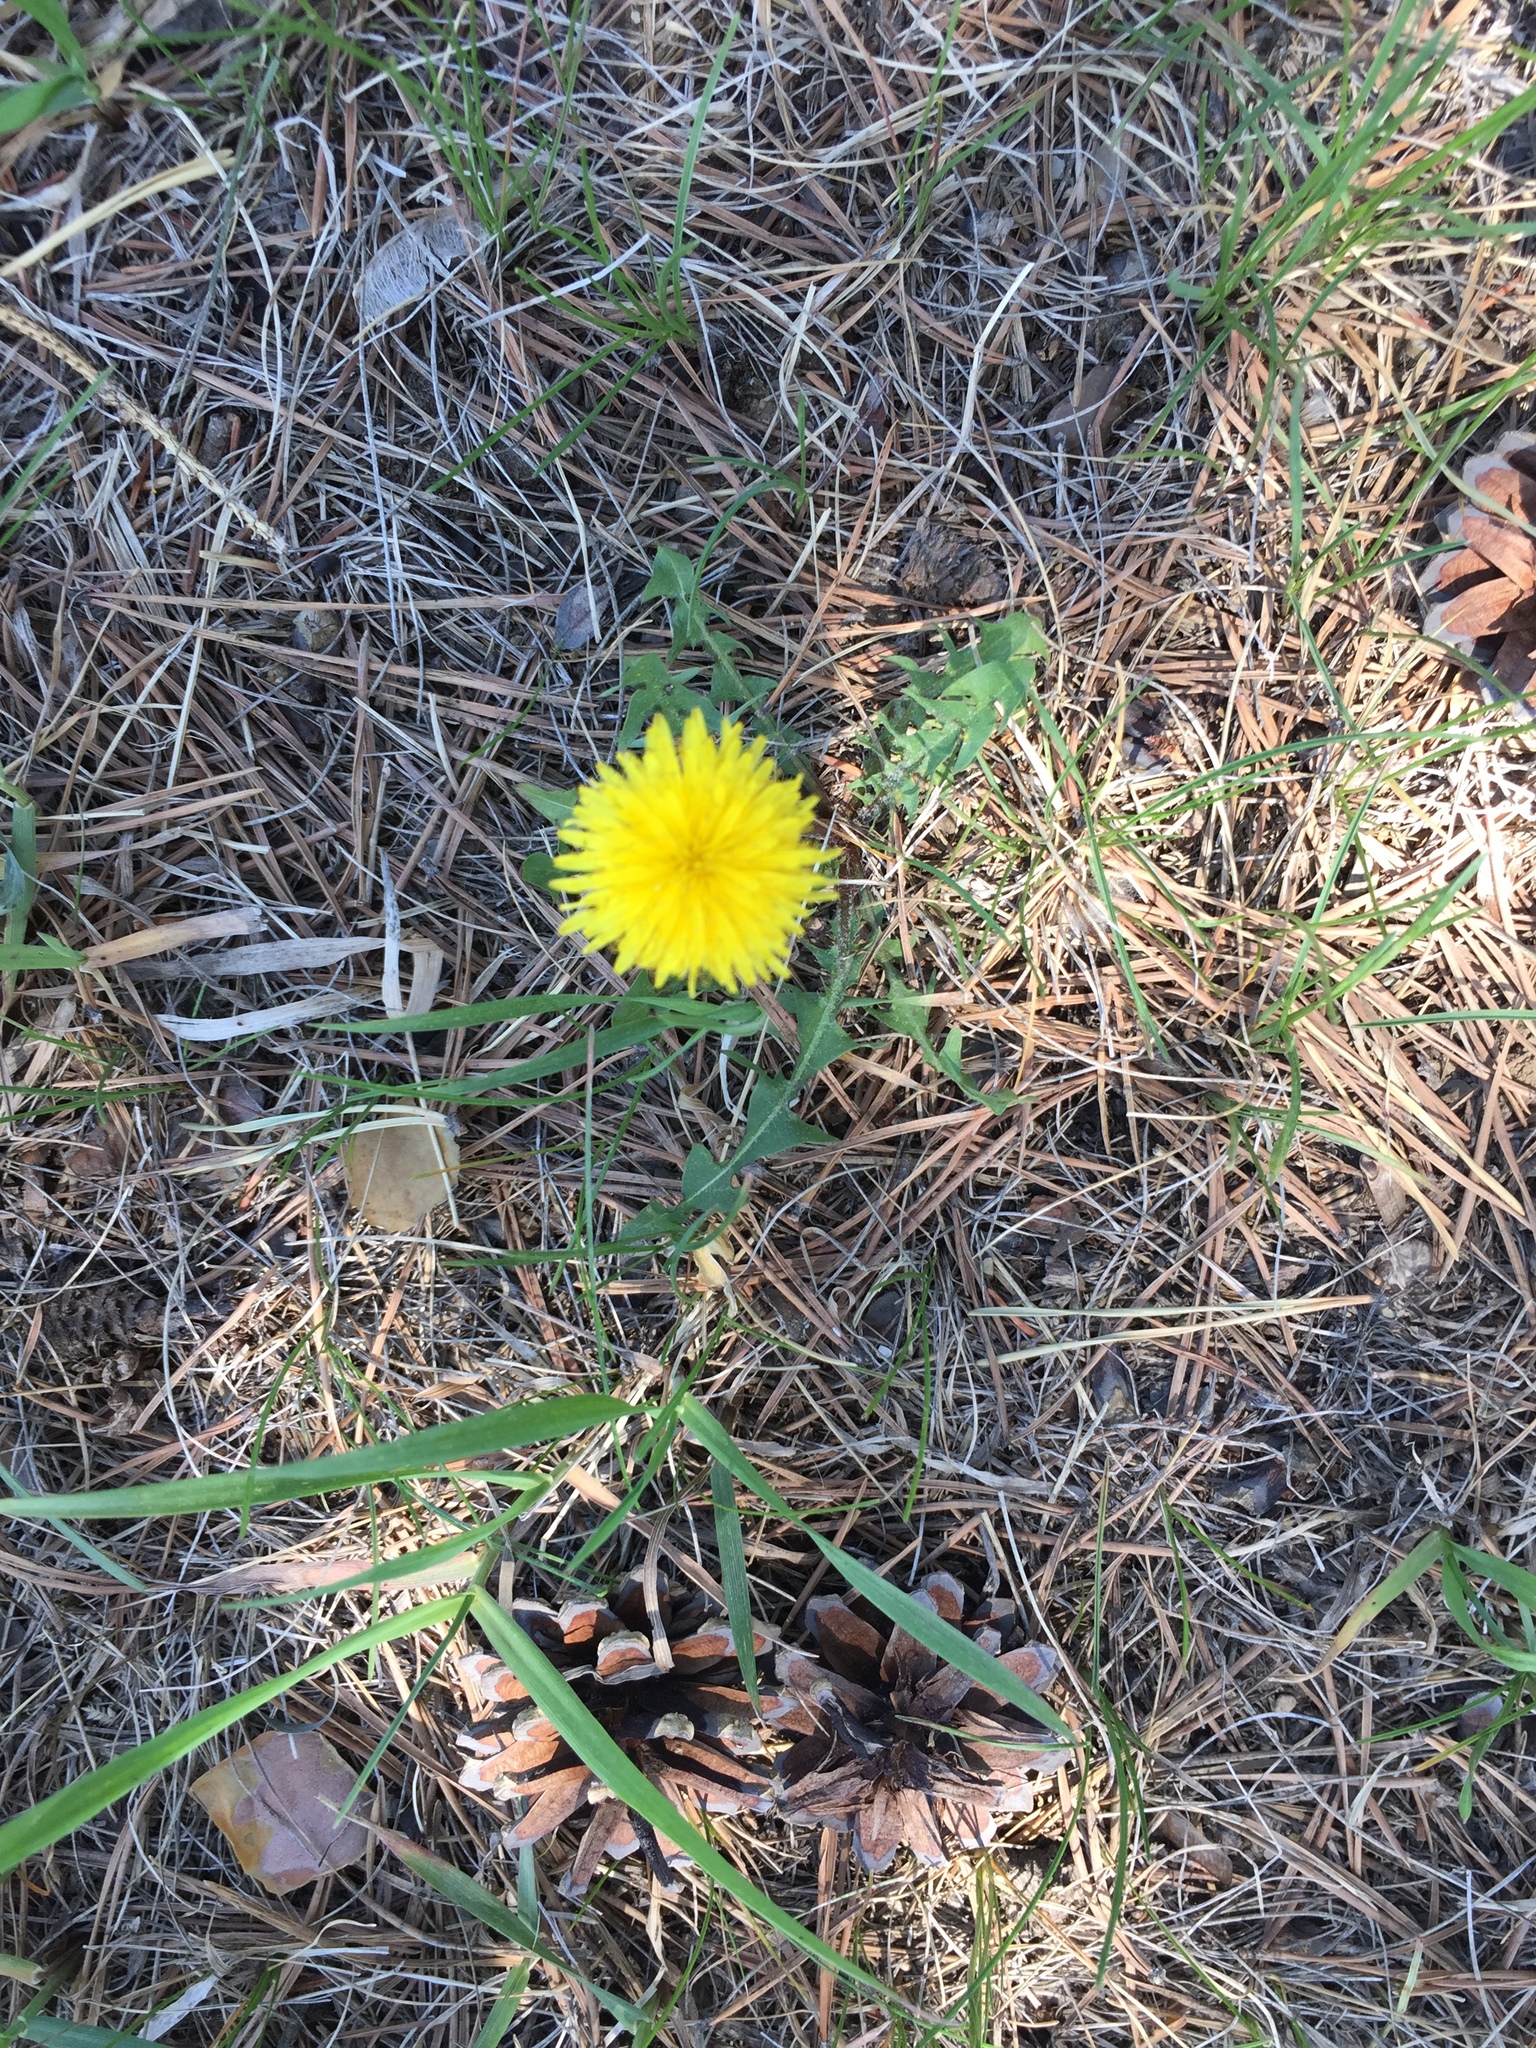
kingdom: Plantae
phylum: Tracheophyta
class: Magnoliopsida
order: Asterales
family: Asteraceae
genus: Taraxacum
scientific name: Taraxacum officinale
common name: Common dandelion
